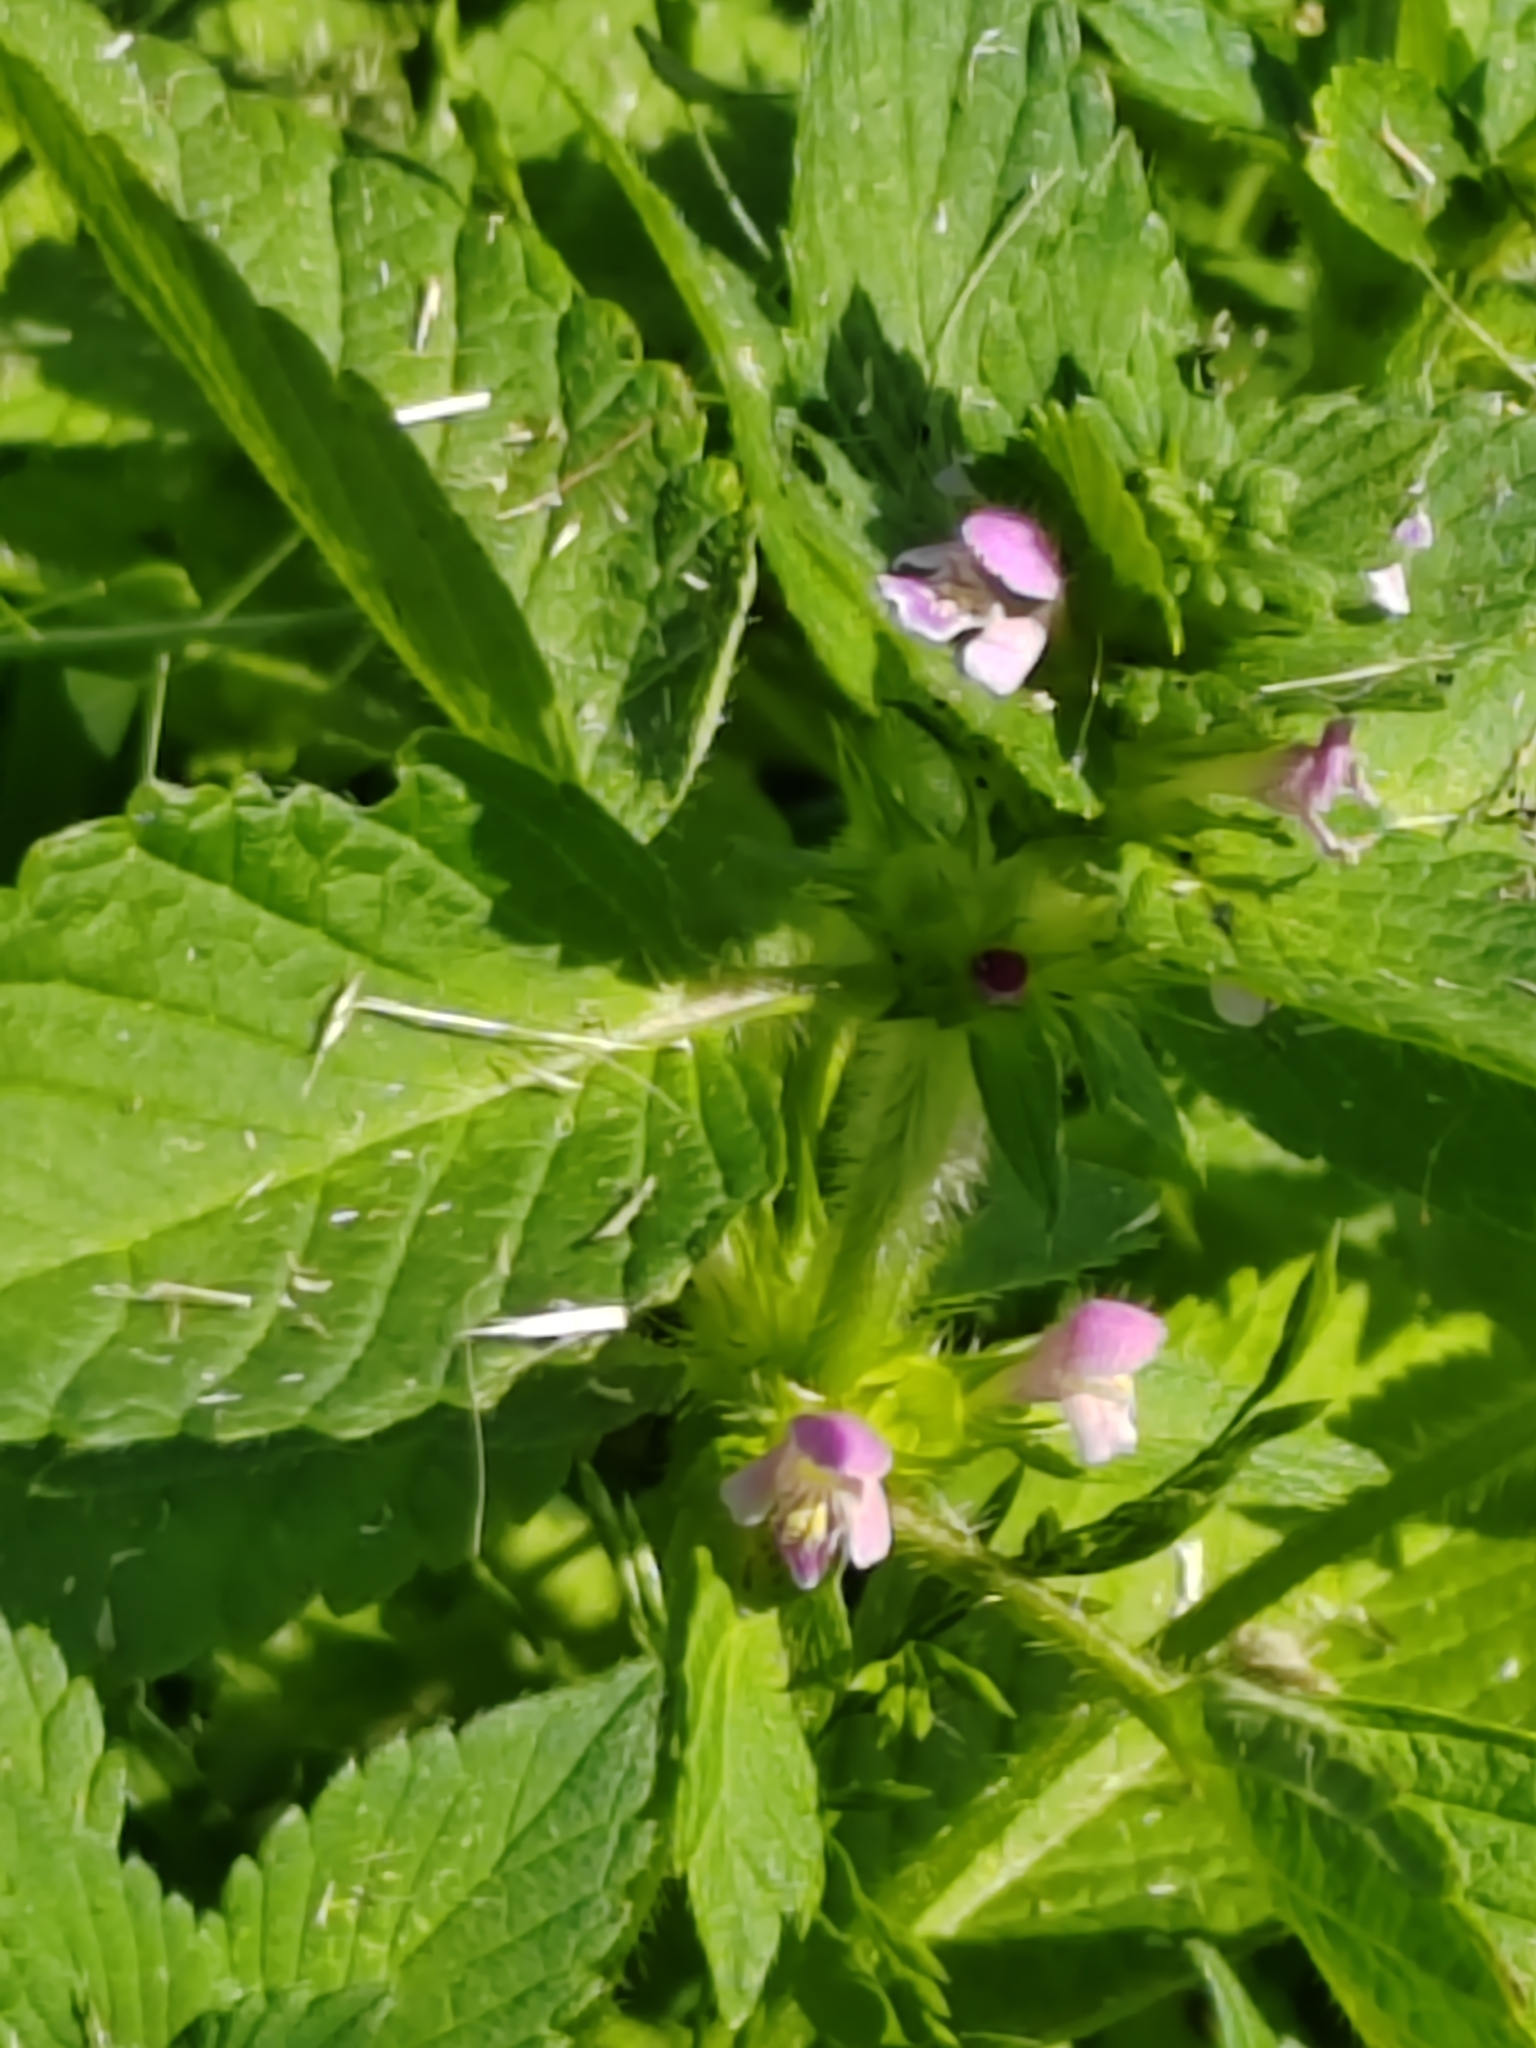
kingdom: Plantae
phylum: Tracheophyta
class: Magnoliopsida
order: Lamiales
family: Lamiaceae
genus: Galeopsis
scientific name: Galeopsis bifida
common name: Bifid hemp-nettle
